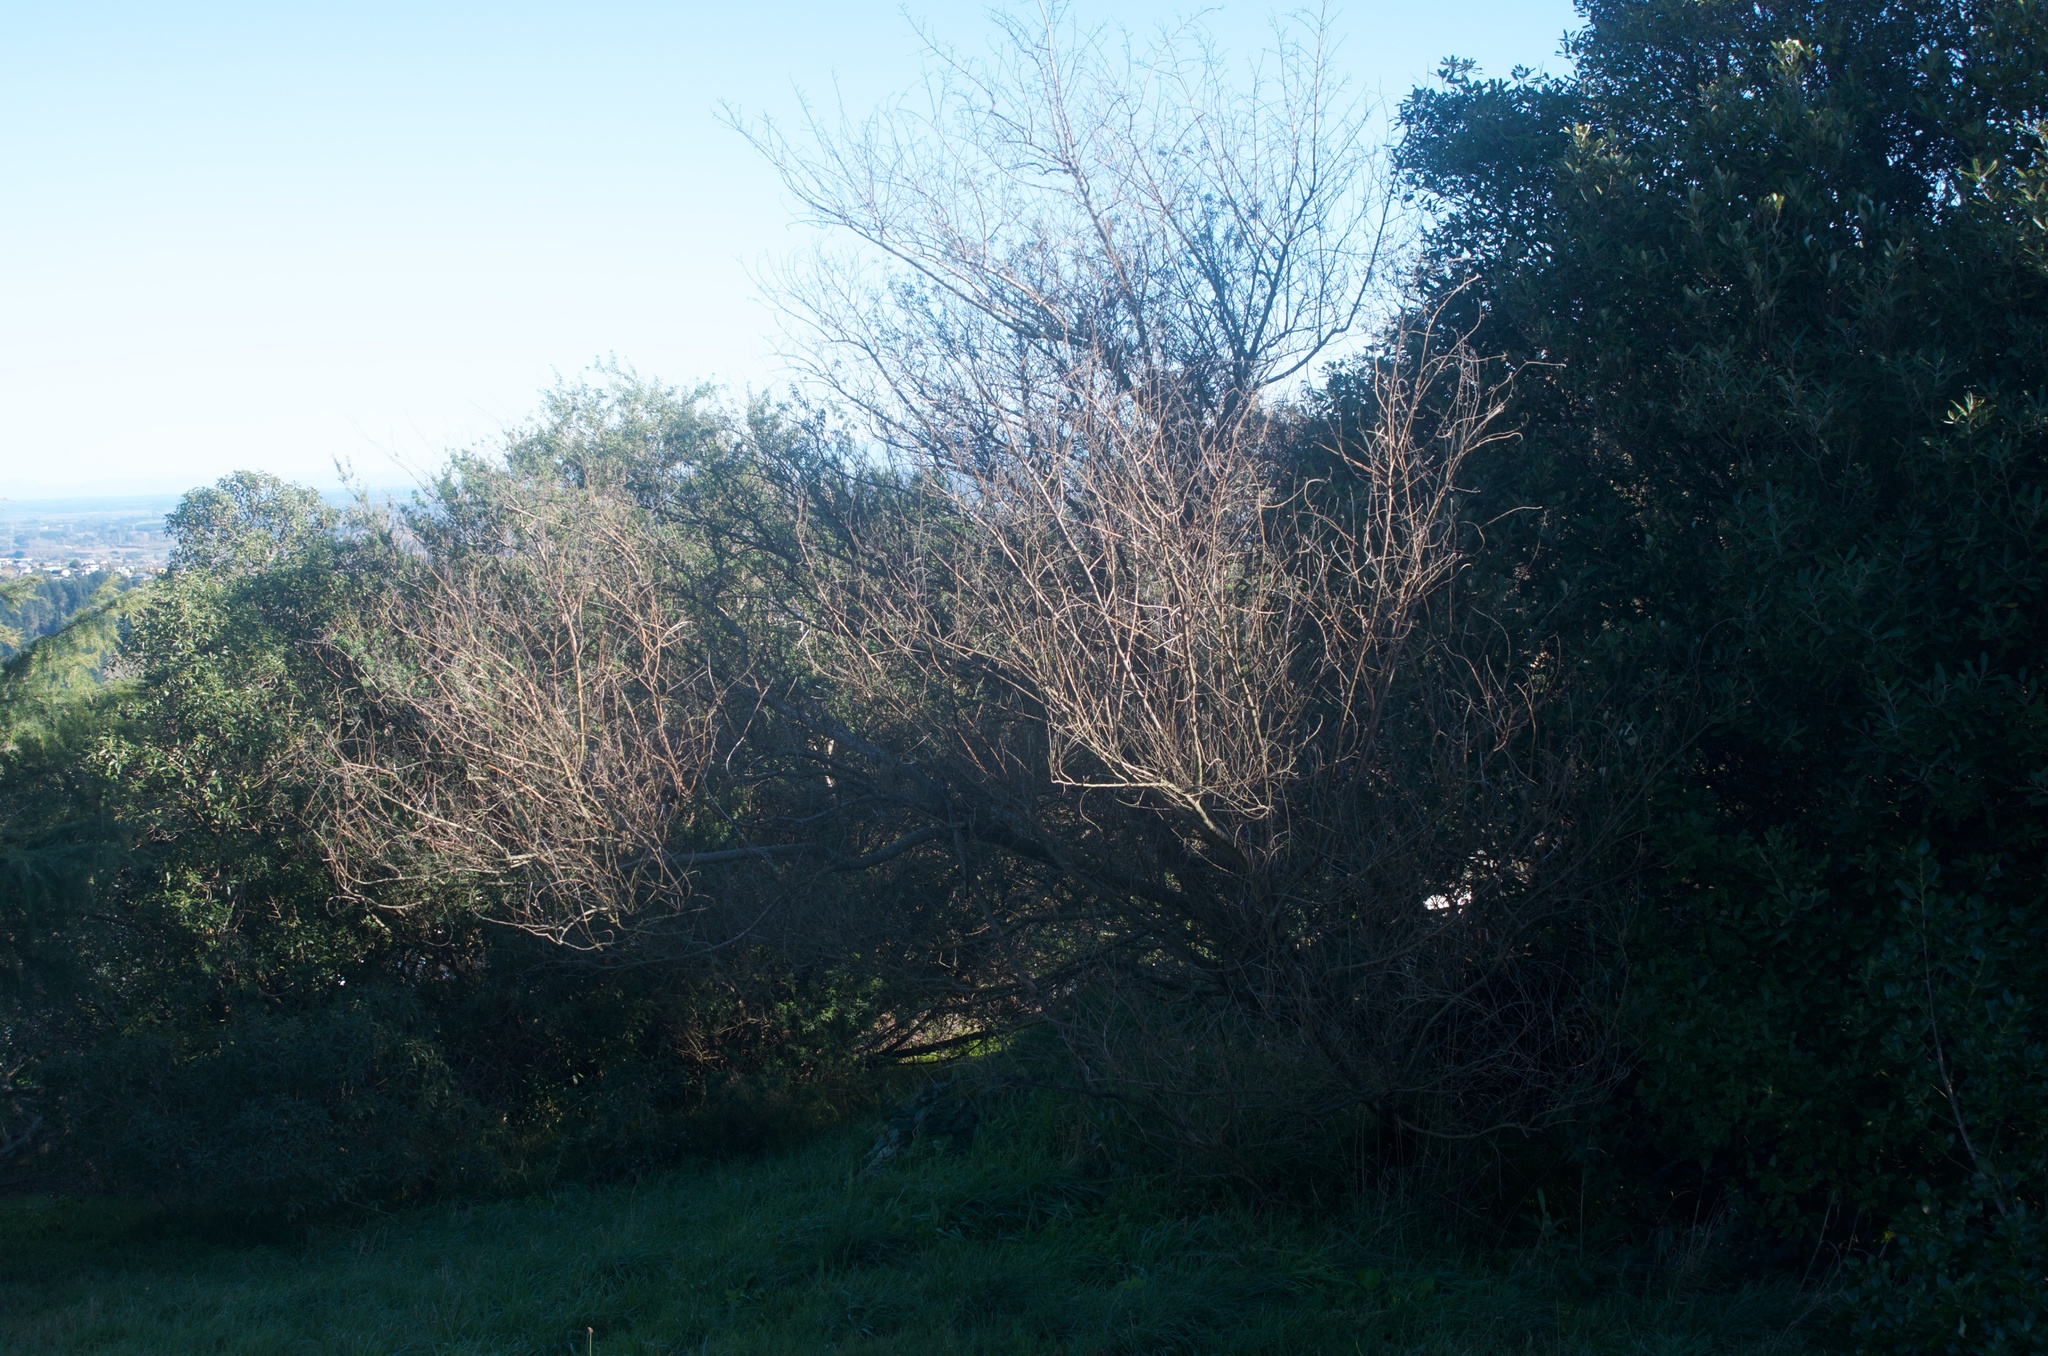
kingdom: Plantae
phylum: Tracheophyta
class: Magnoliopsida
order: Fabales
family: Fabaceae
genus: Chamaecytisus
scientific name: Chamaecytisus prolifer
